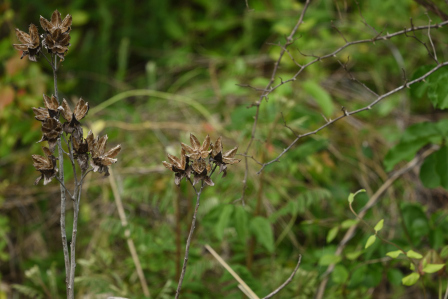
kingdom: Plantae
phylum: Tracheophyta
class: Magnoliopsida
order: Malvales
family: Malvaceae
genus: Hibiscus
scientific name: Hibiscus moscheutos
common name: Common rose-mallow
